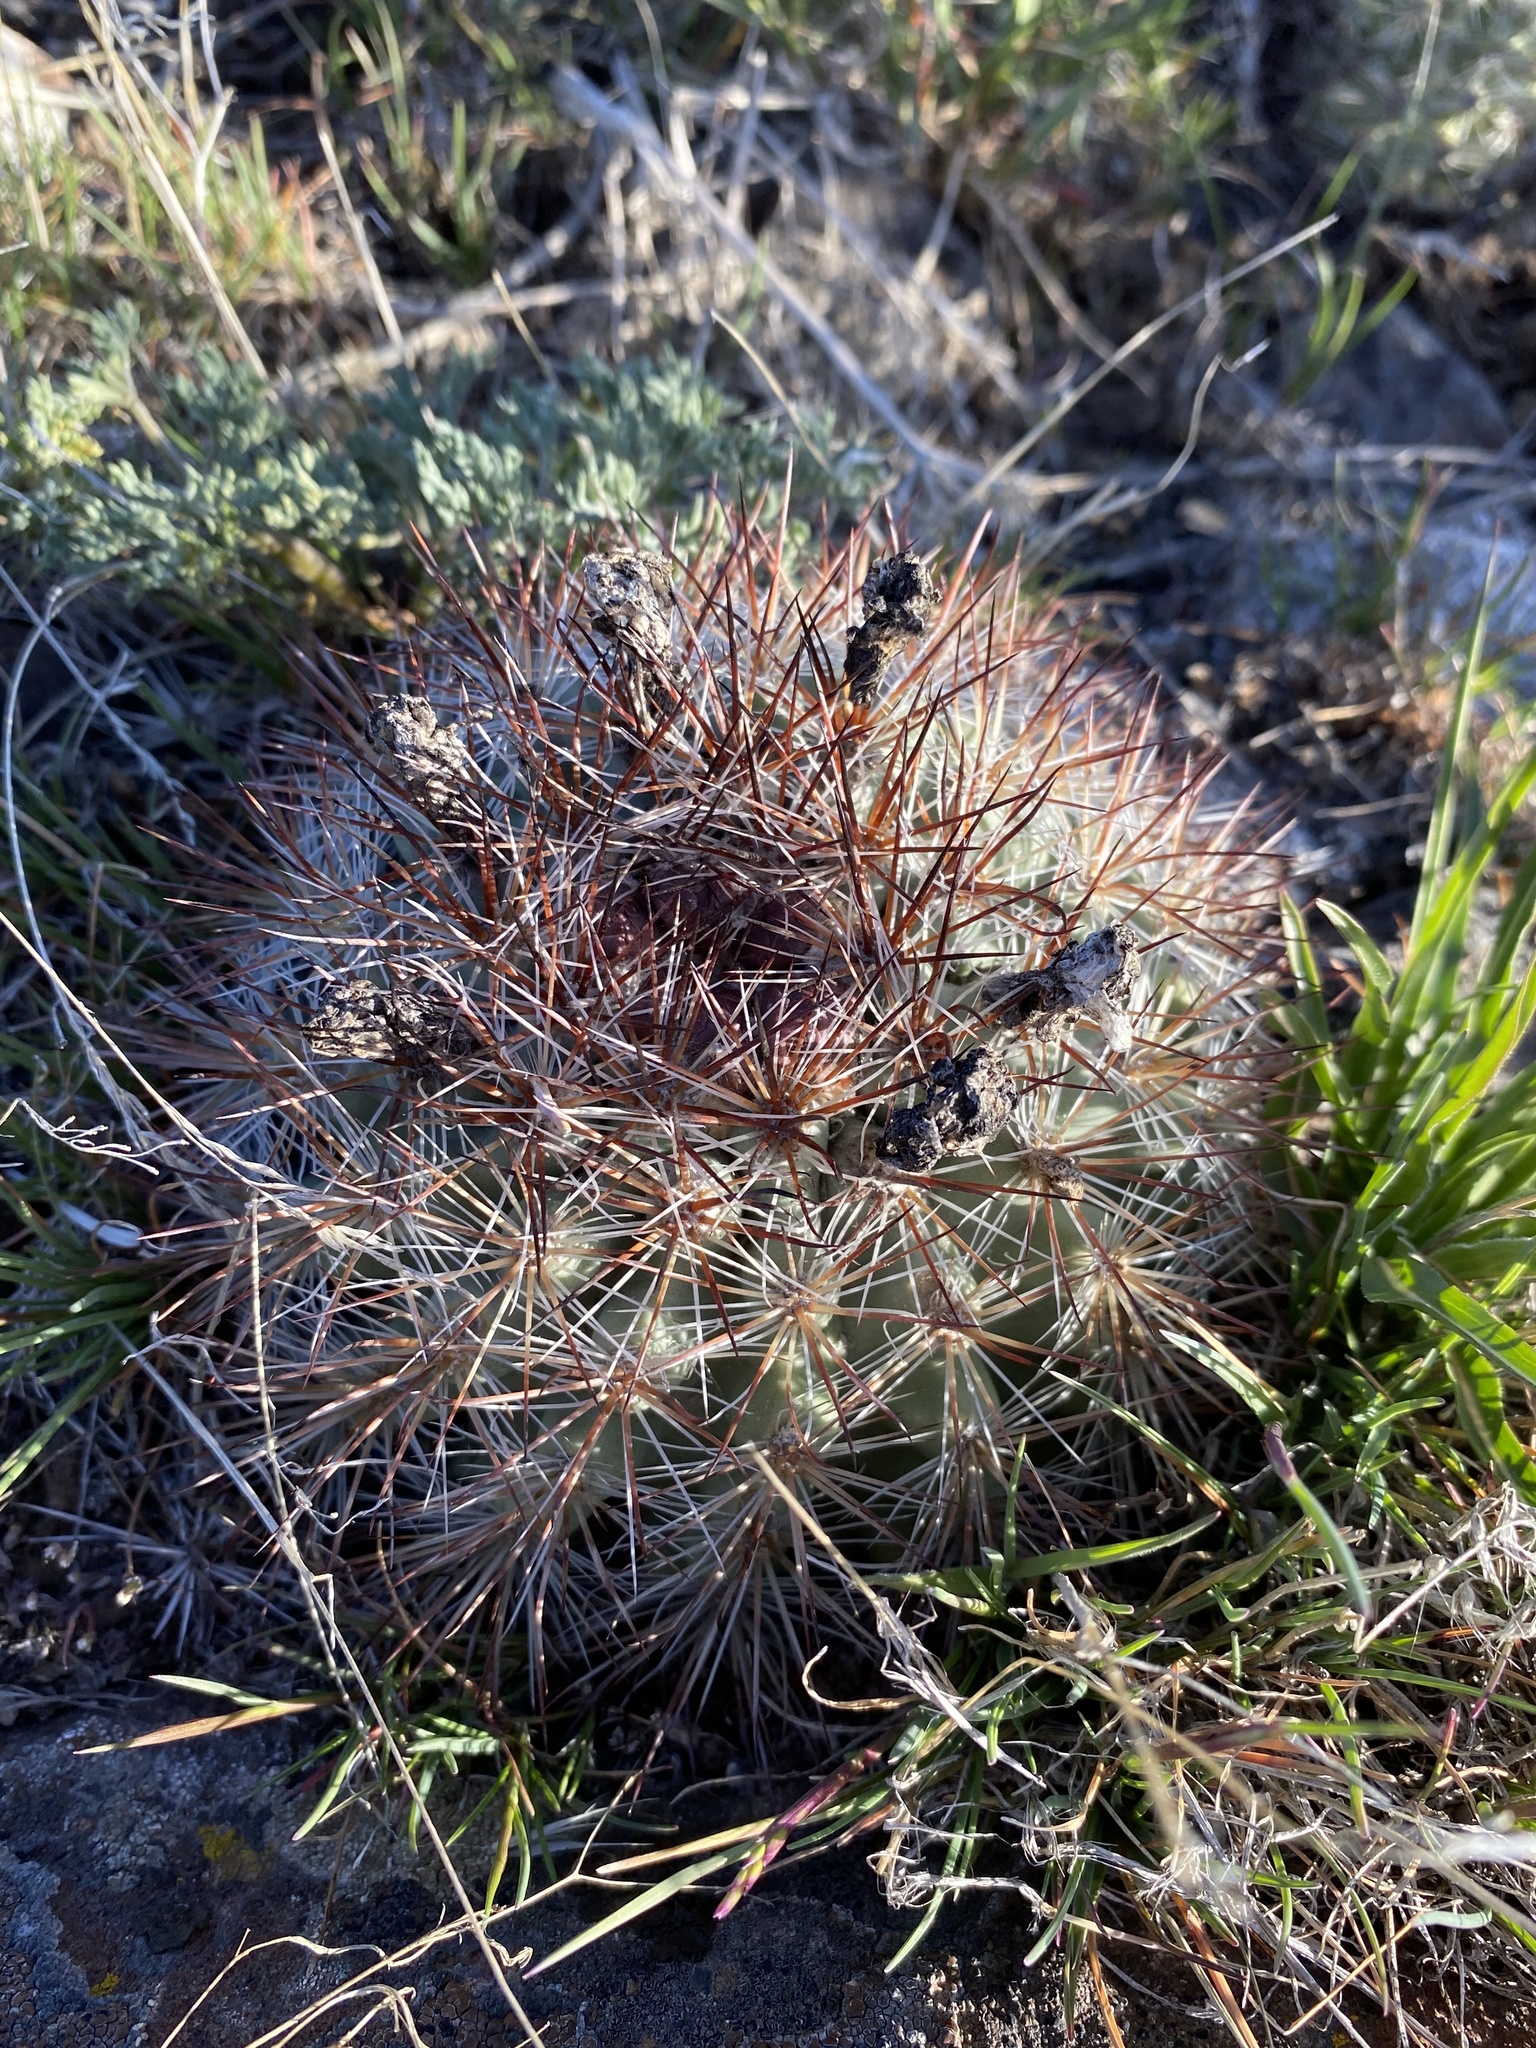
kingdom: Plantae
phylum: Tracheophyta
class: Magnoliopsida
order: Caryophyllales
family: Cactaceae
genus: Pediocactus
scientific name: Pediocactus nigrispinus
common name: Simpson's hedgehog cactus
